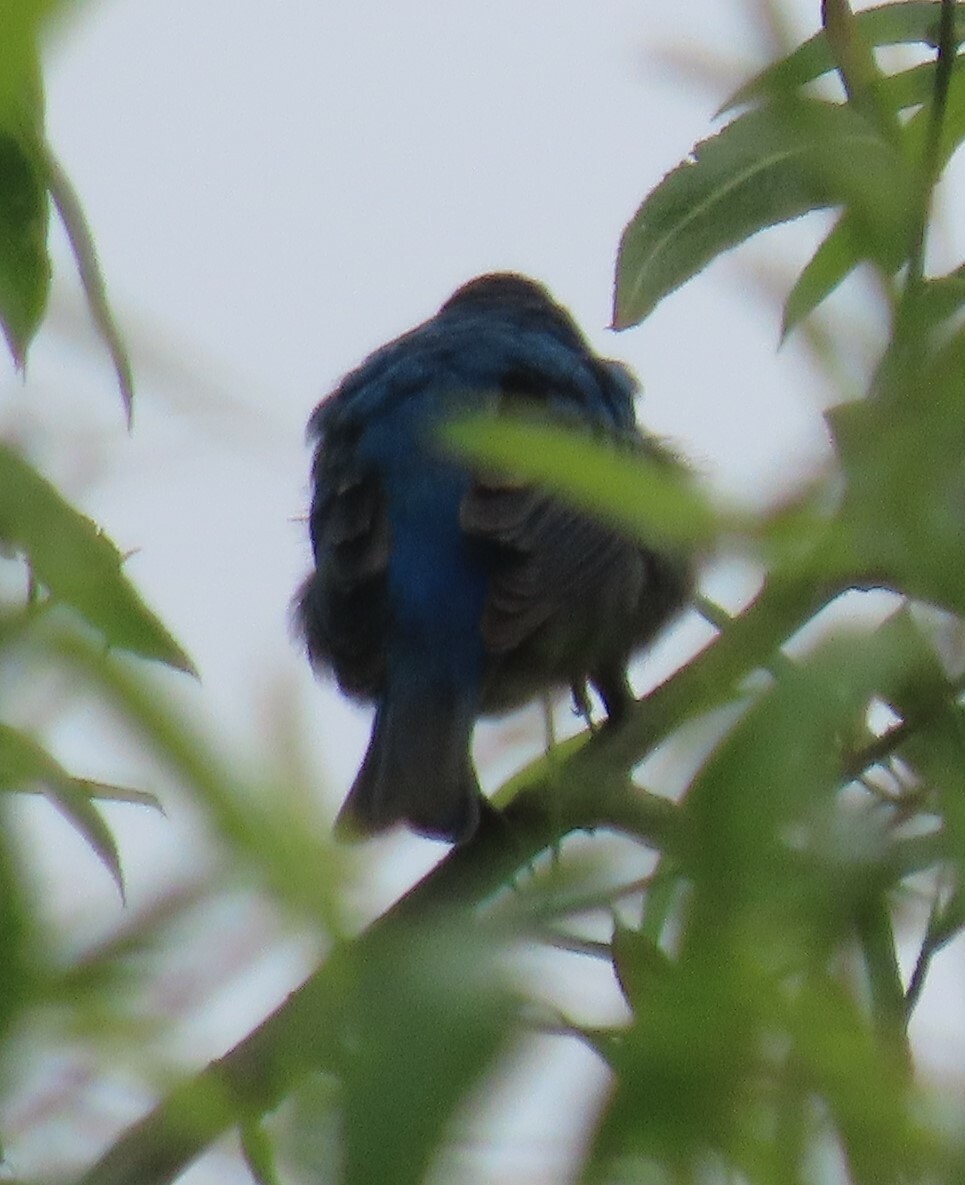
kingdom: Animalia
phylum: Chordata
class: Aves
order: Passeriformes
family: Cardinalidae
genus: Passerina
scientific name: Passerina cyanea
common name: Indigo bunting
